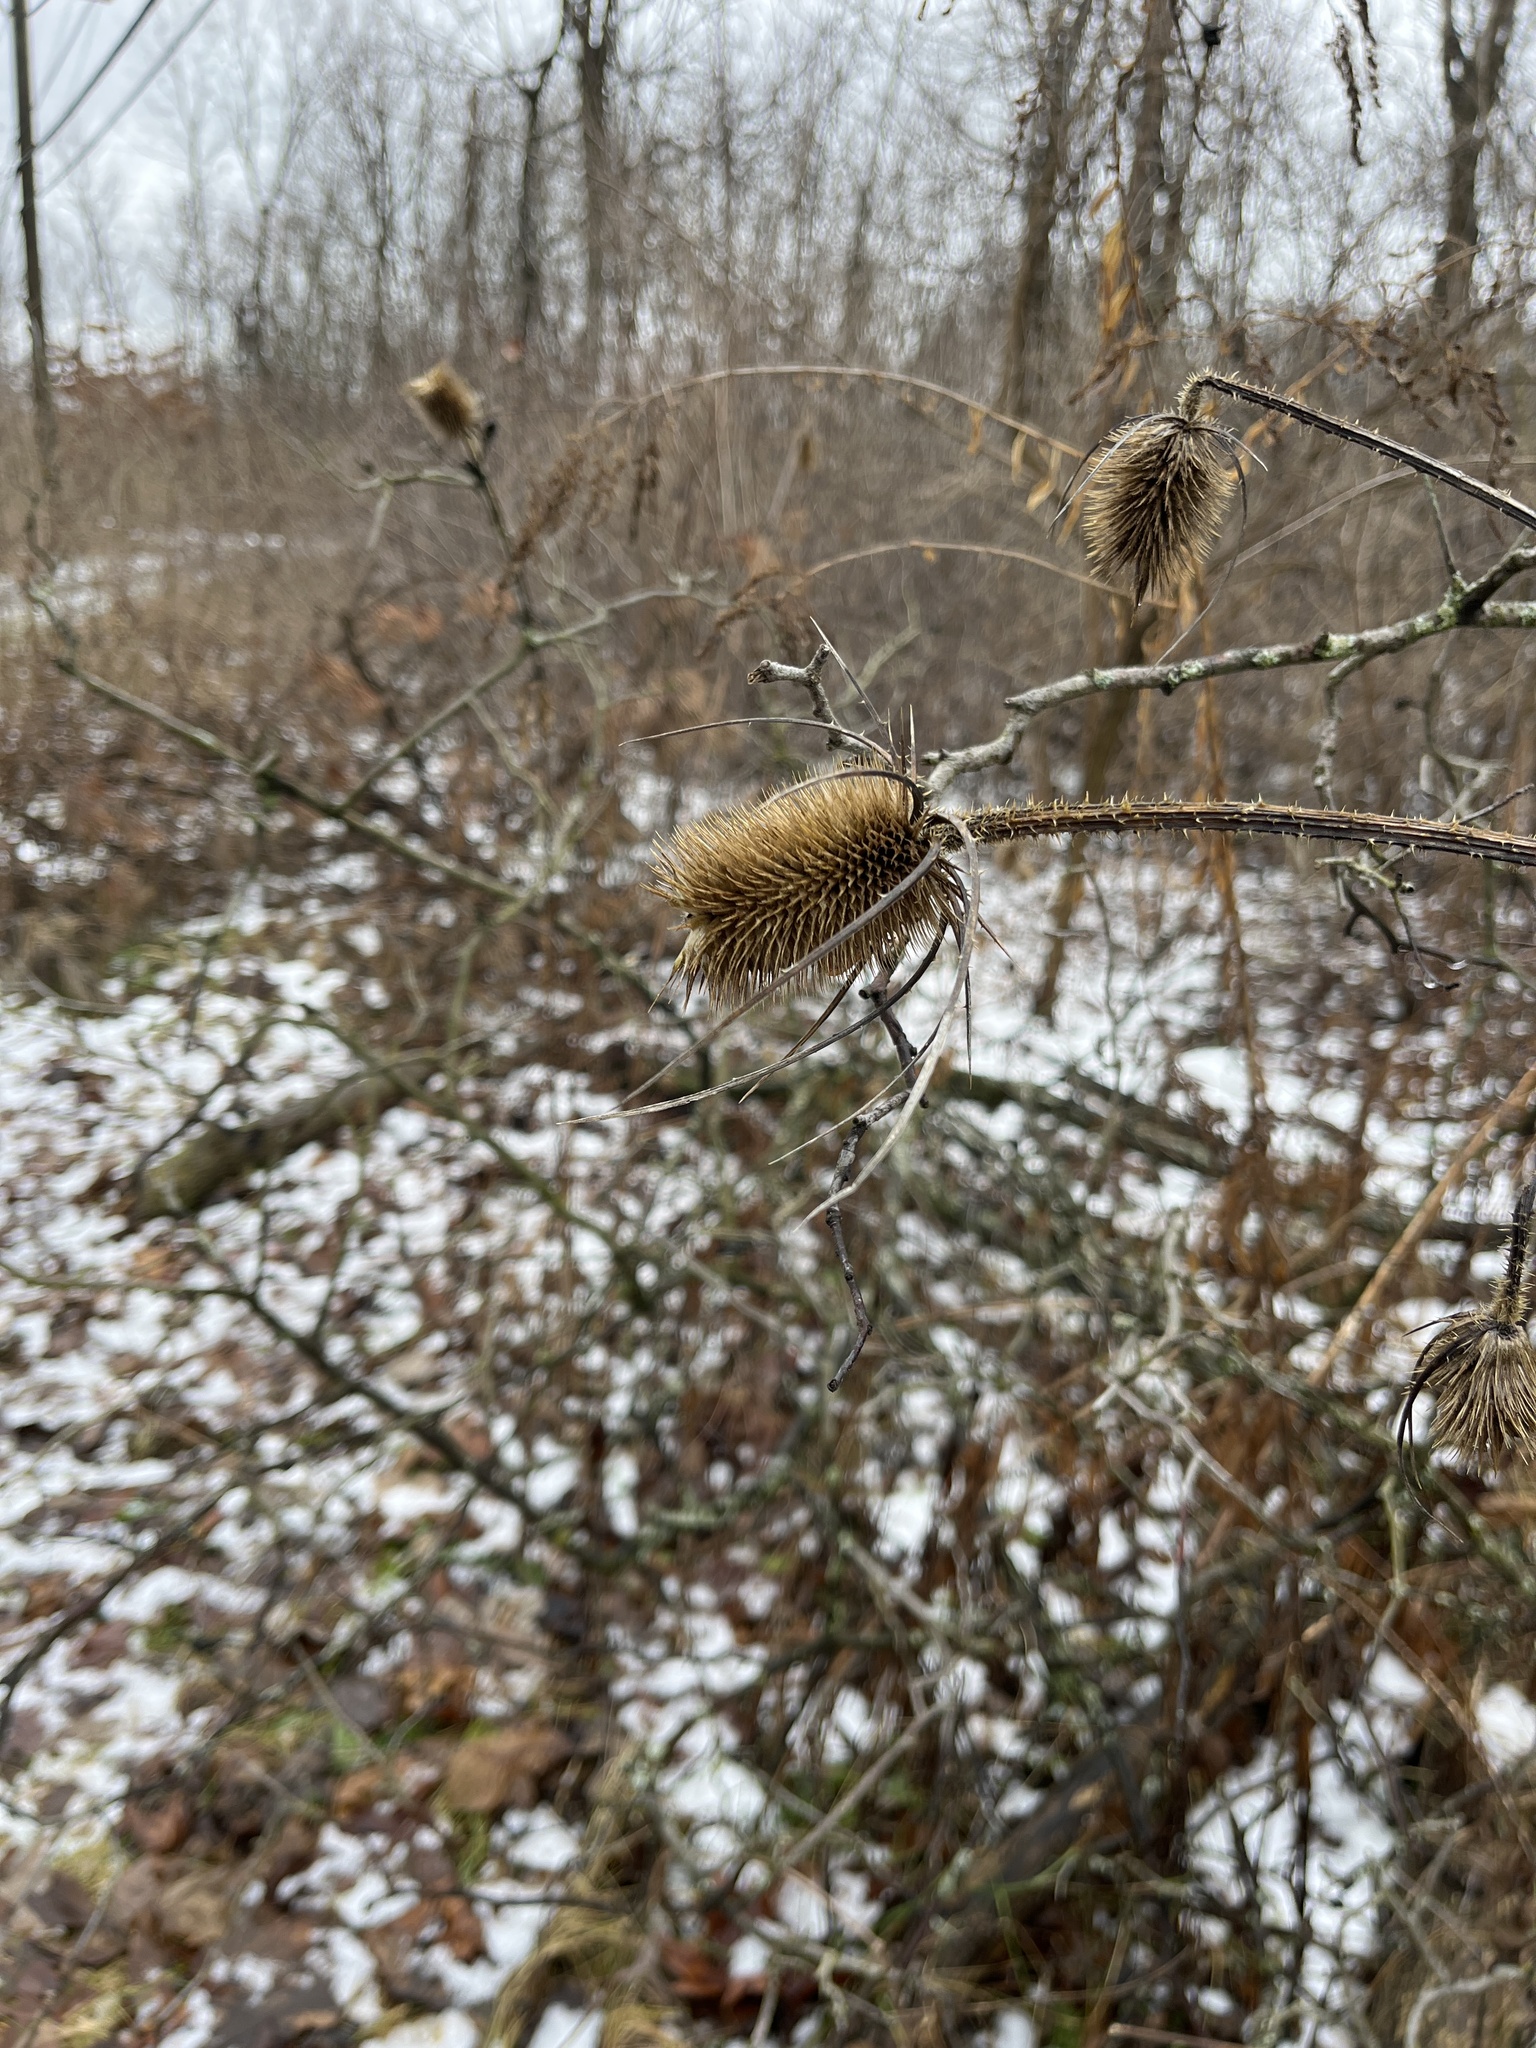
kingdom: Plantae
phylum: Tracheophyta
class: Magnoliopsida
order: Dipsacales
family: Caprifoliaceae
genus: Dipsacus
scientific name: Dipsacus fullonum
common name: Teasel
